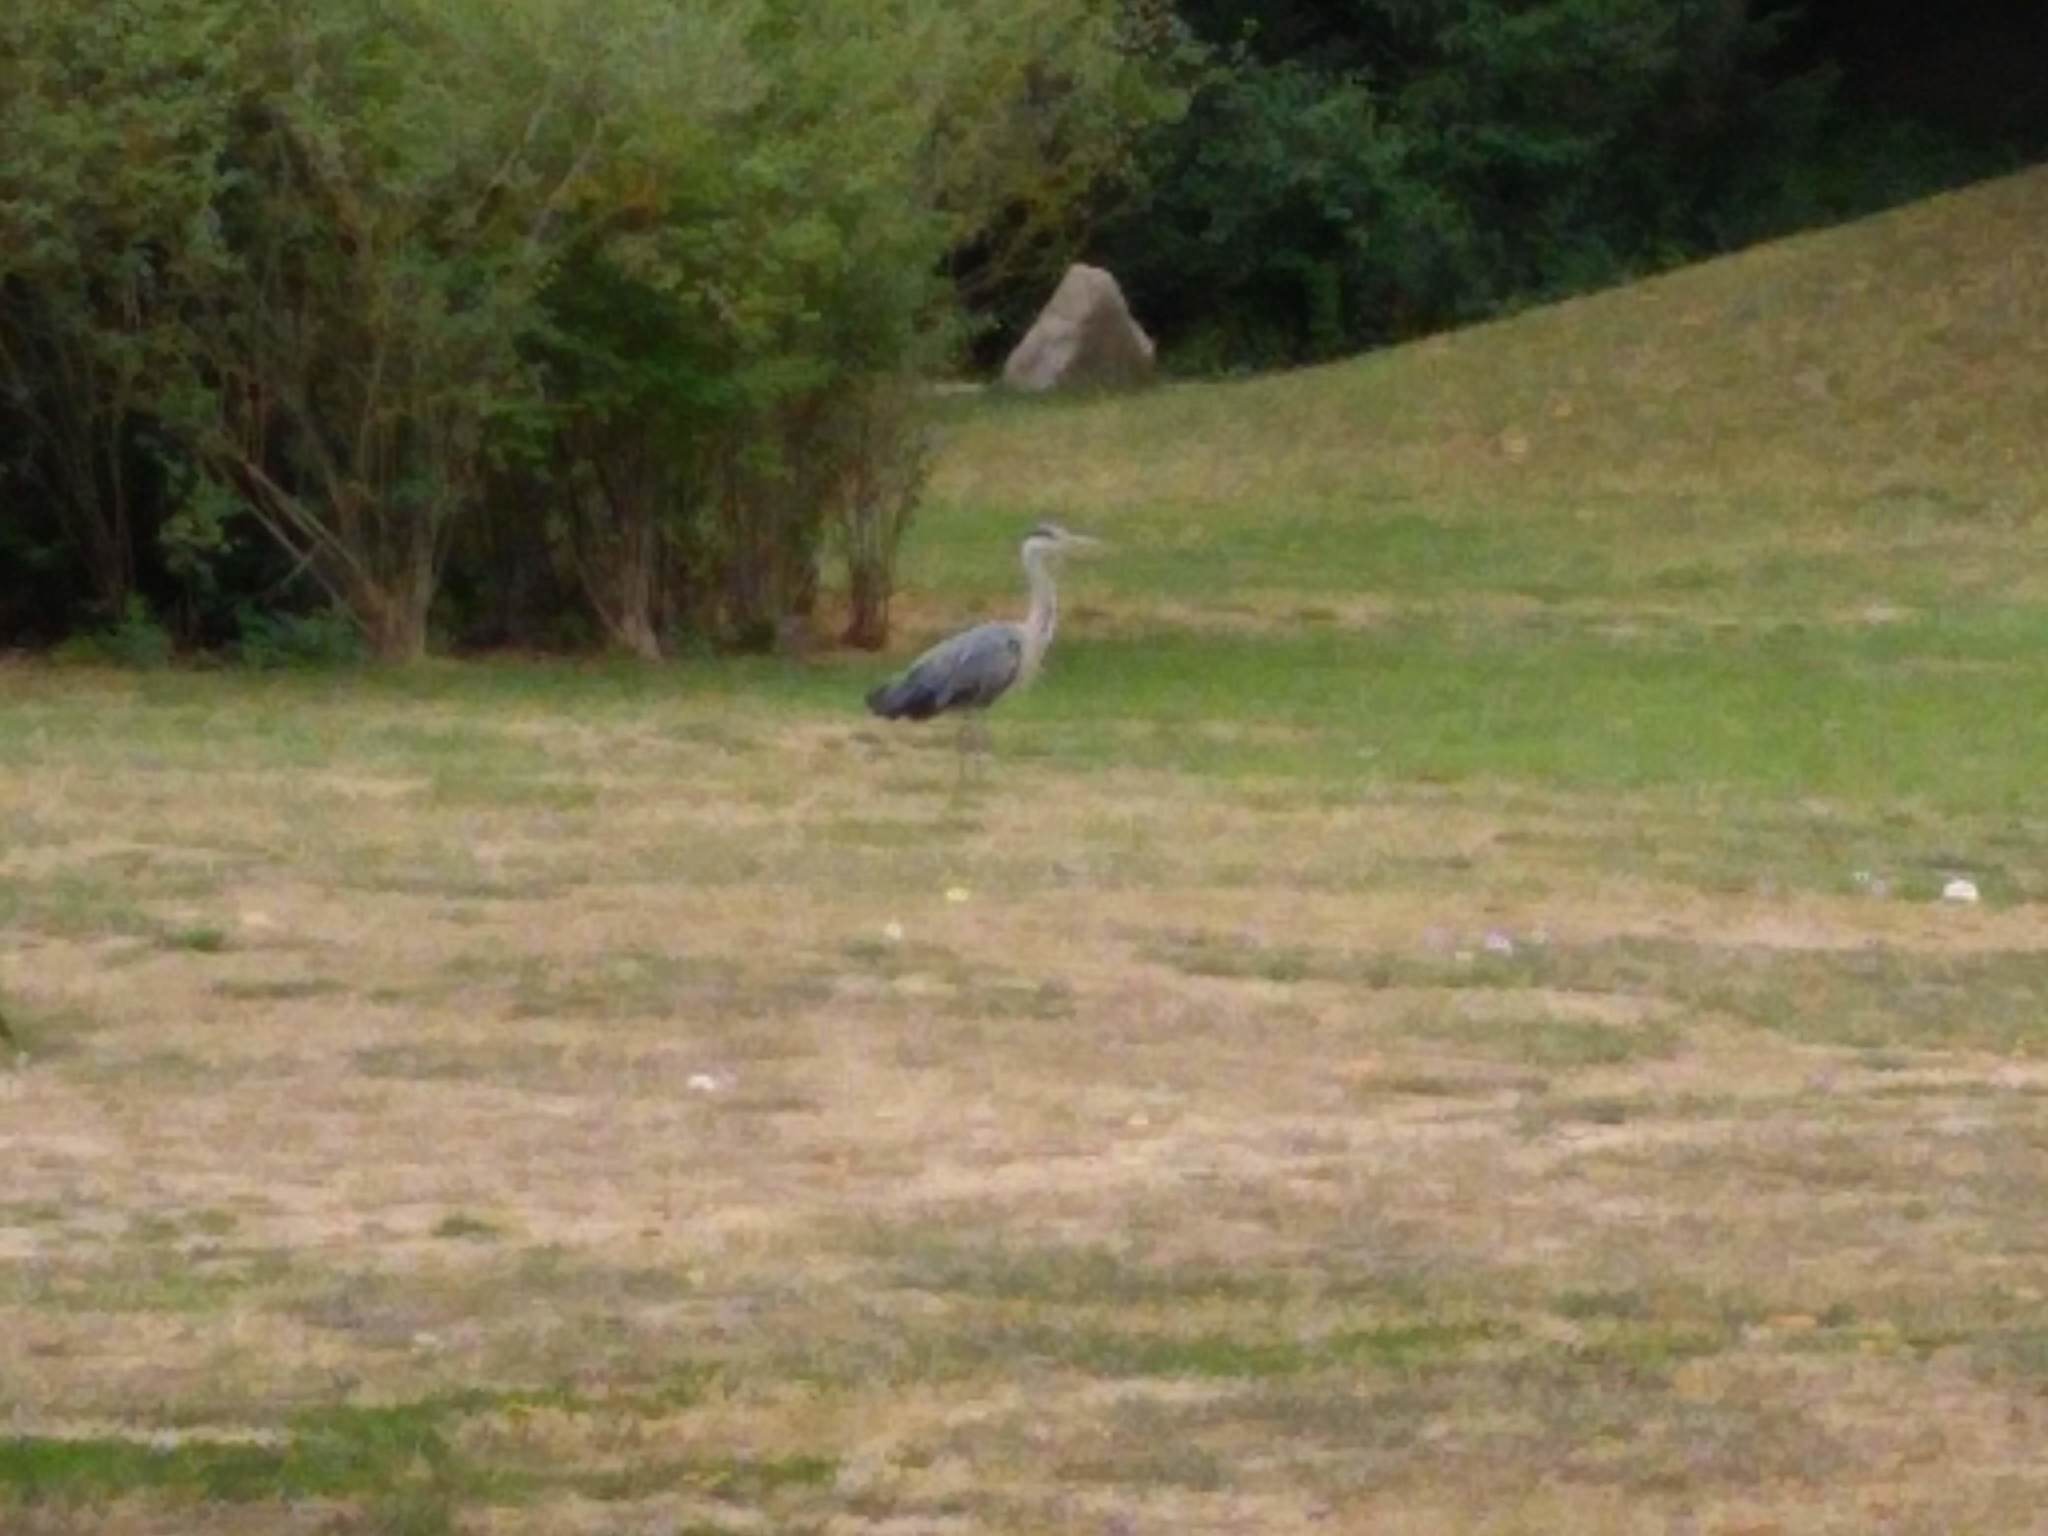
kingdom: Animalia
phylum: Chordata
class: Aves
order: Pelecaniformes
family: Ardeidae
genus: Ardea
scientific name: Ardea cinerea
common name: Grey heron
